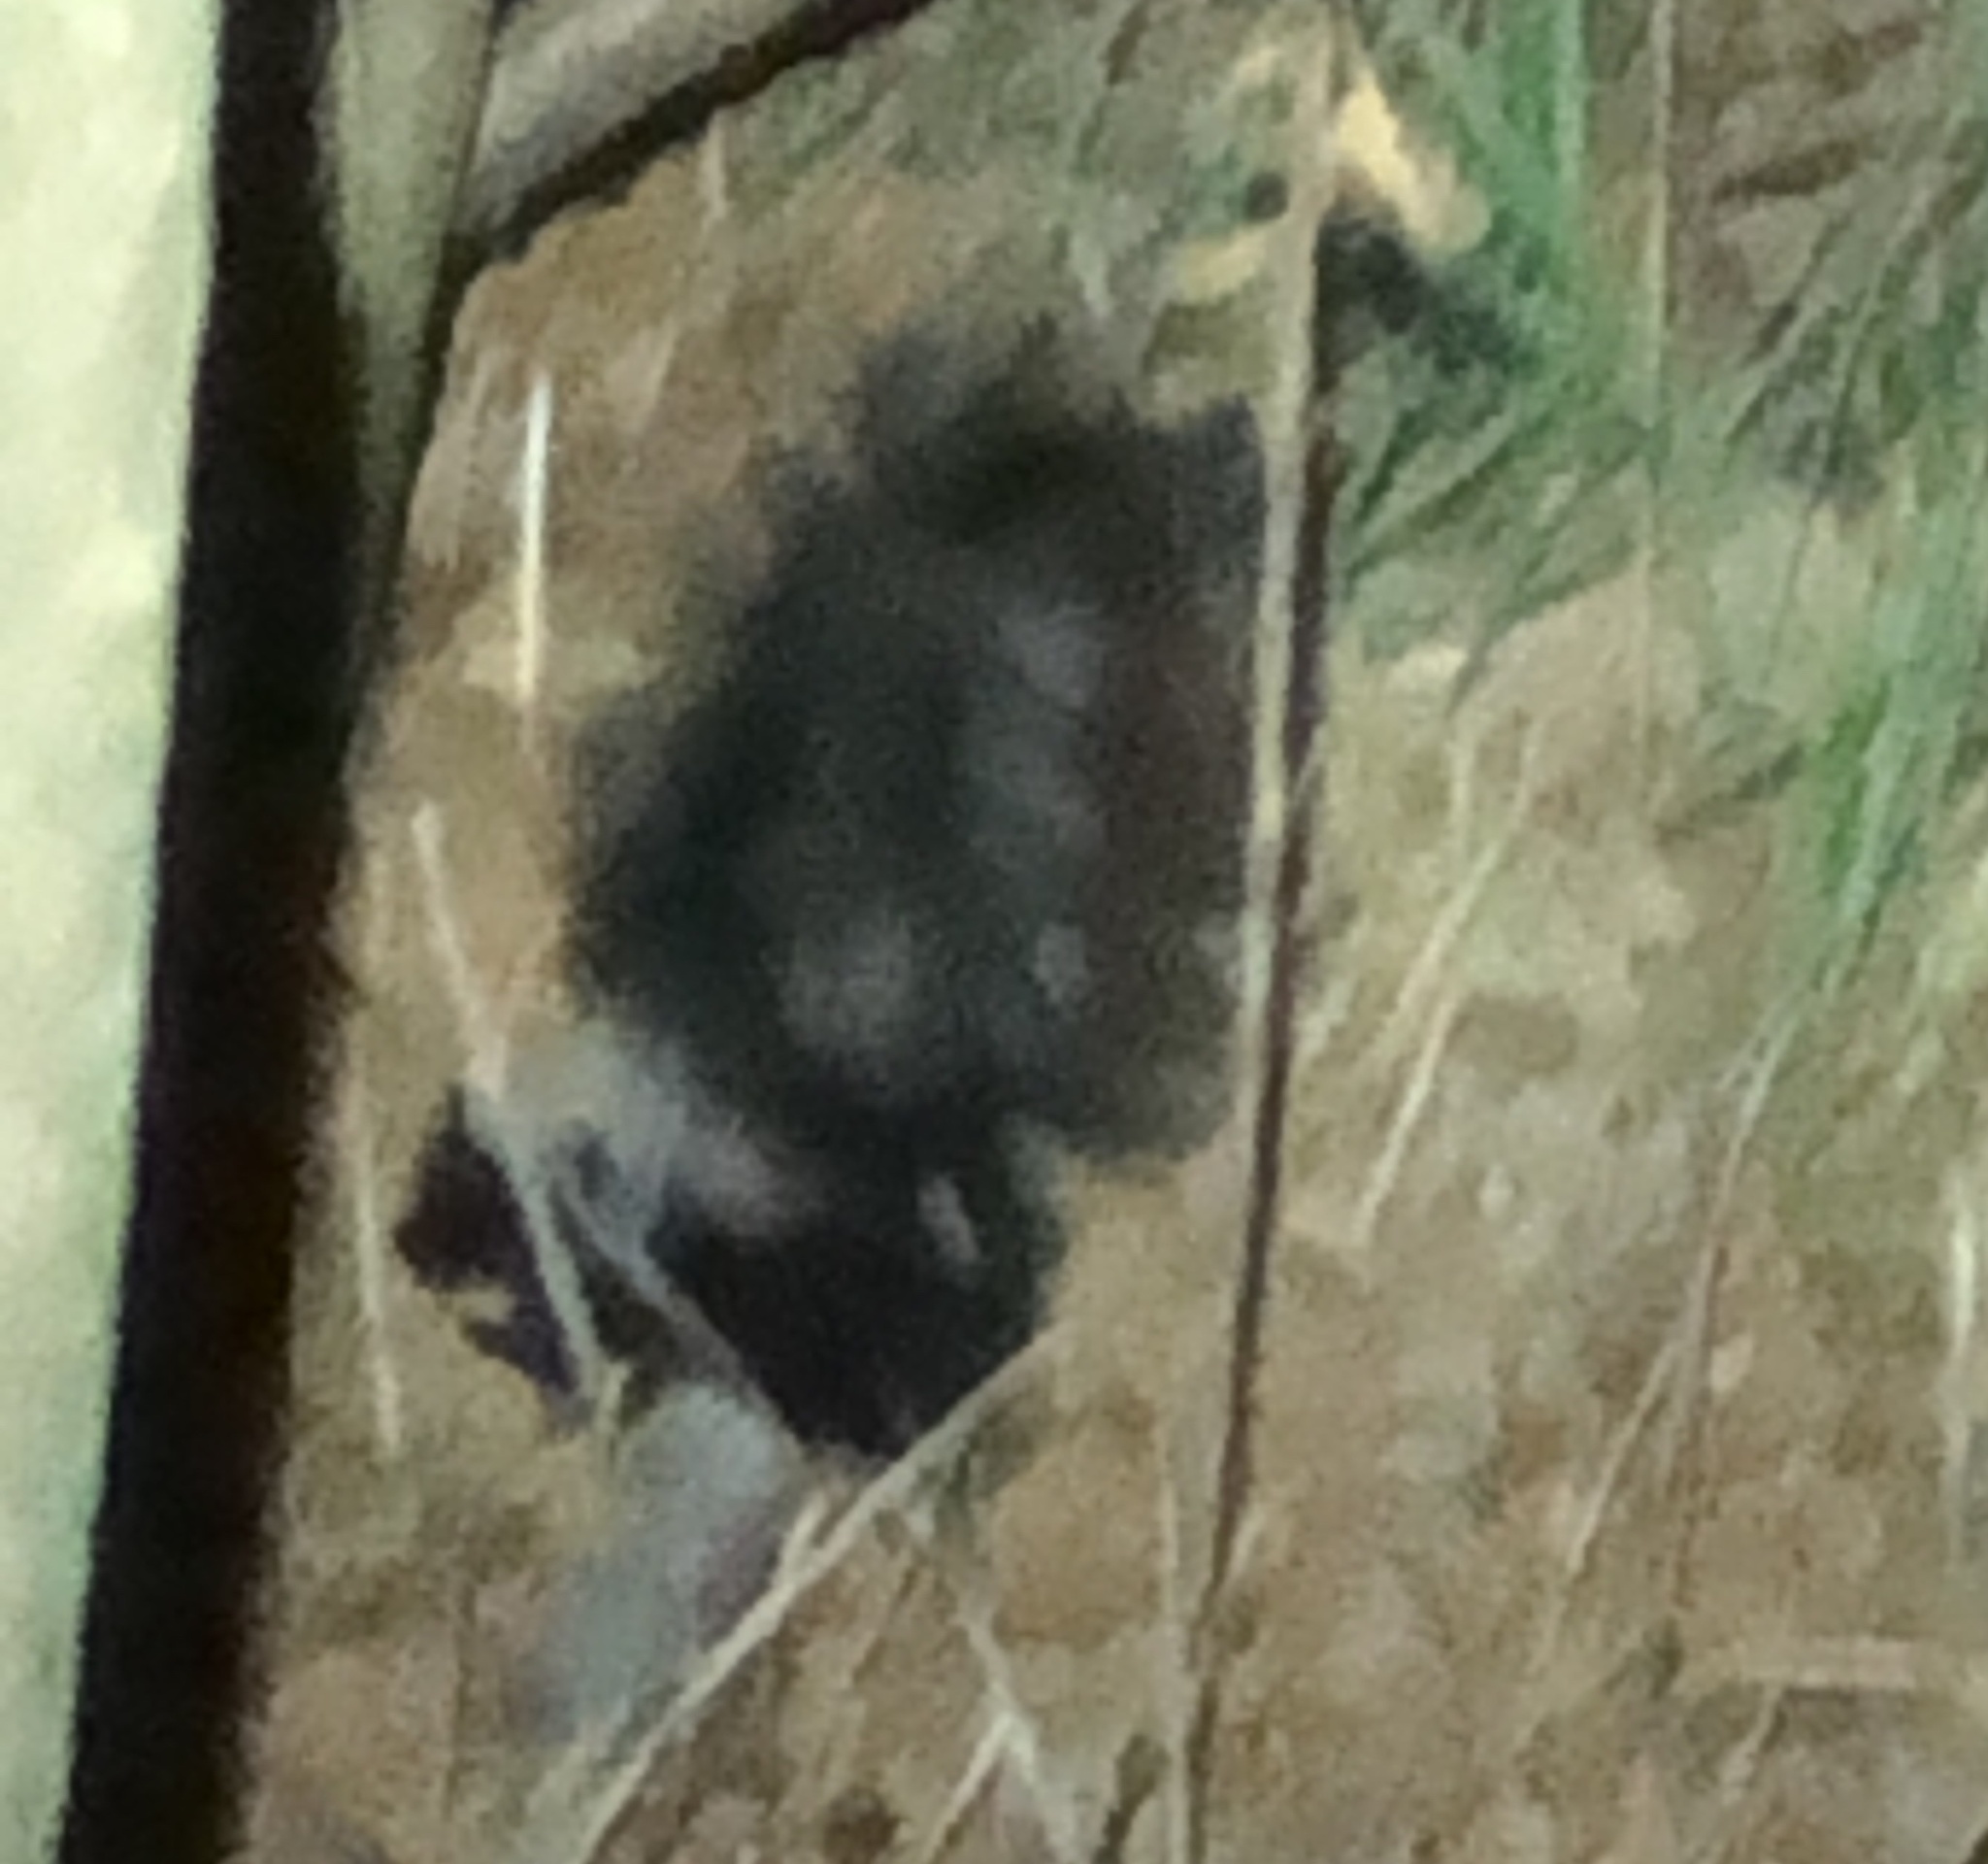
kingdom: Animalia
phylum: Chordata
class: Mammalia
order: Carnivora
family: Mephitidae
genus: Mephitis
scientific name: Mephitis mephitis
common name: Striped skunk
